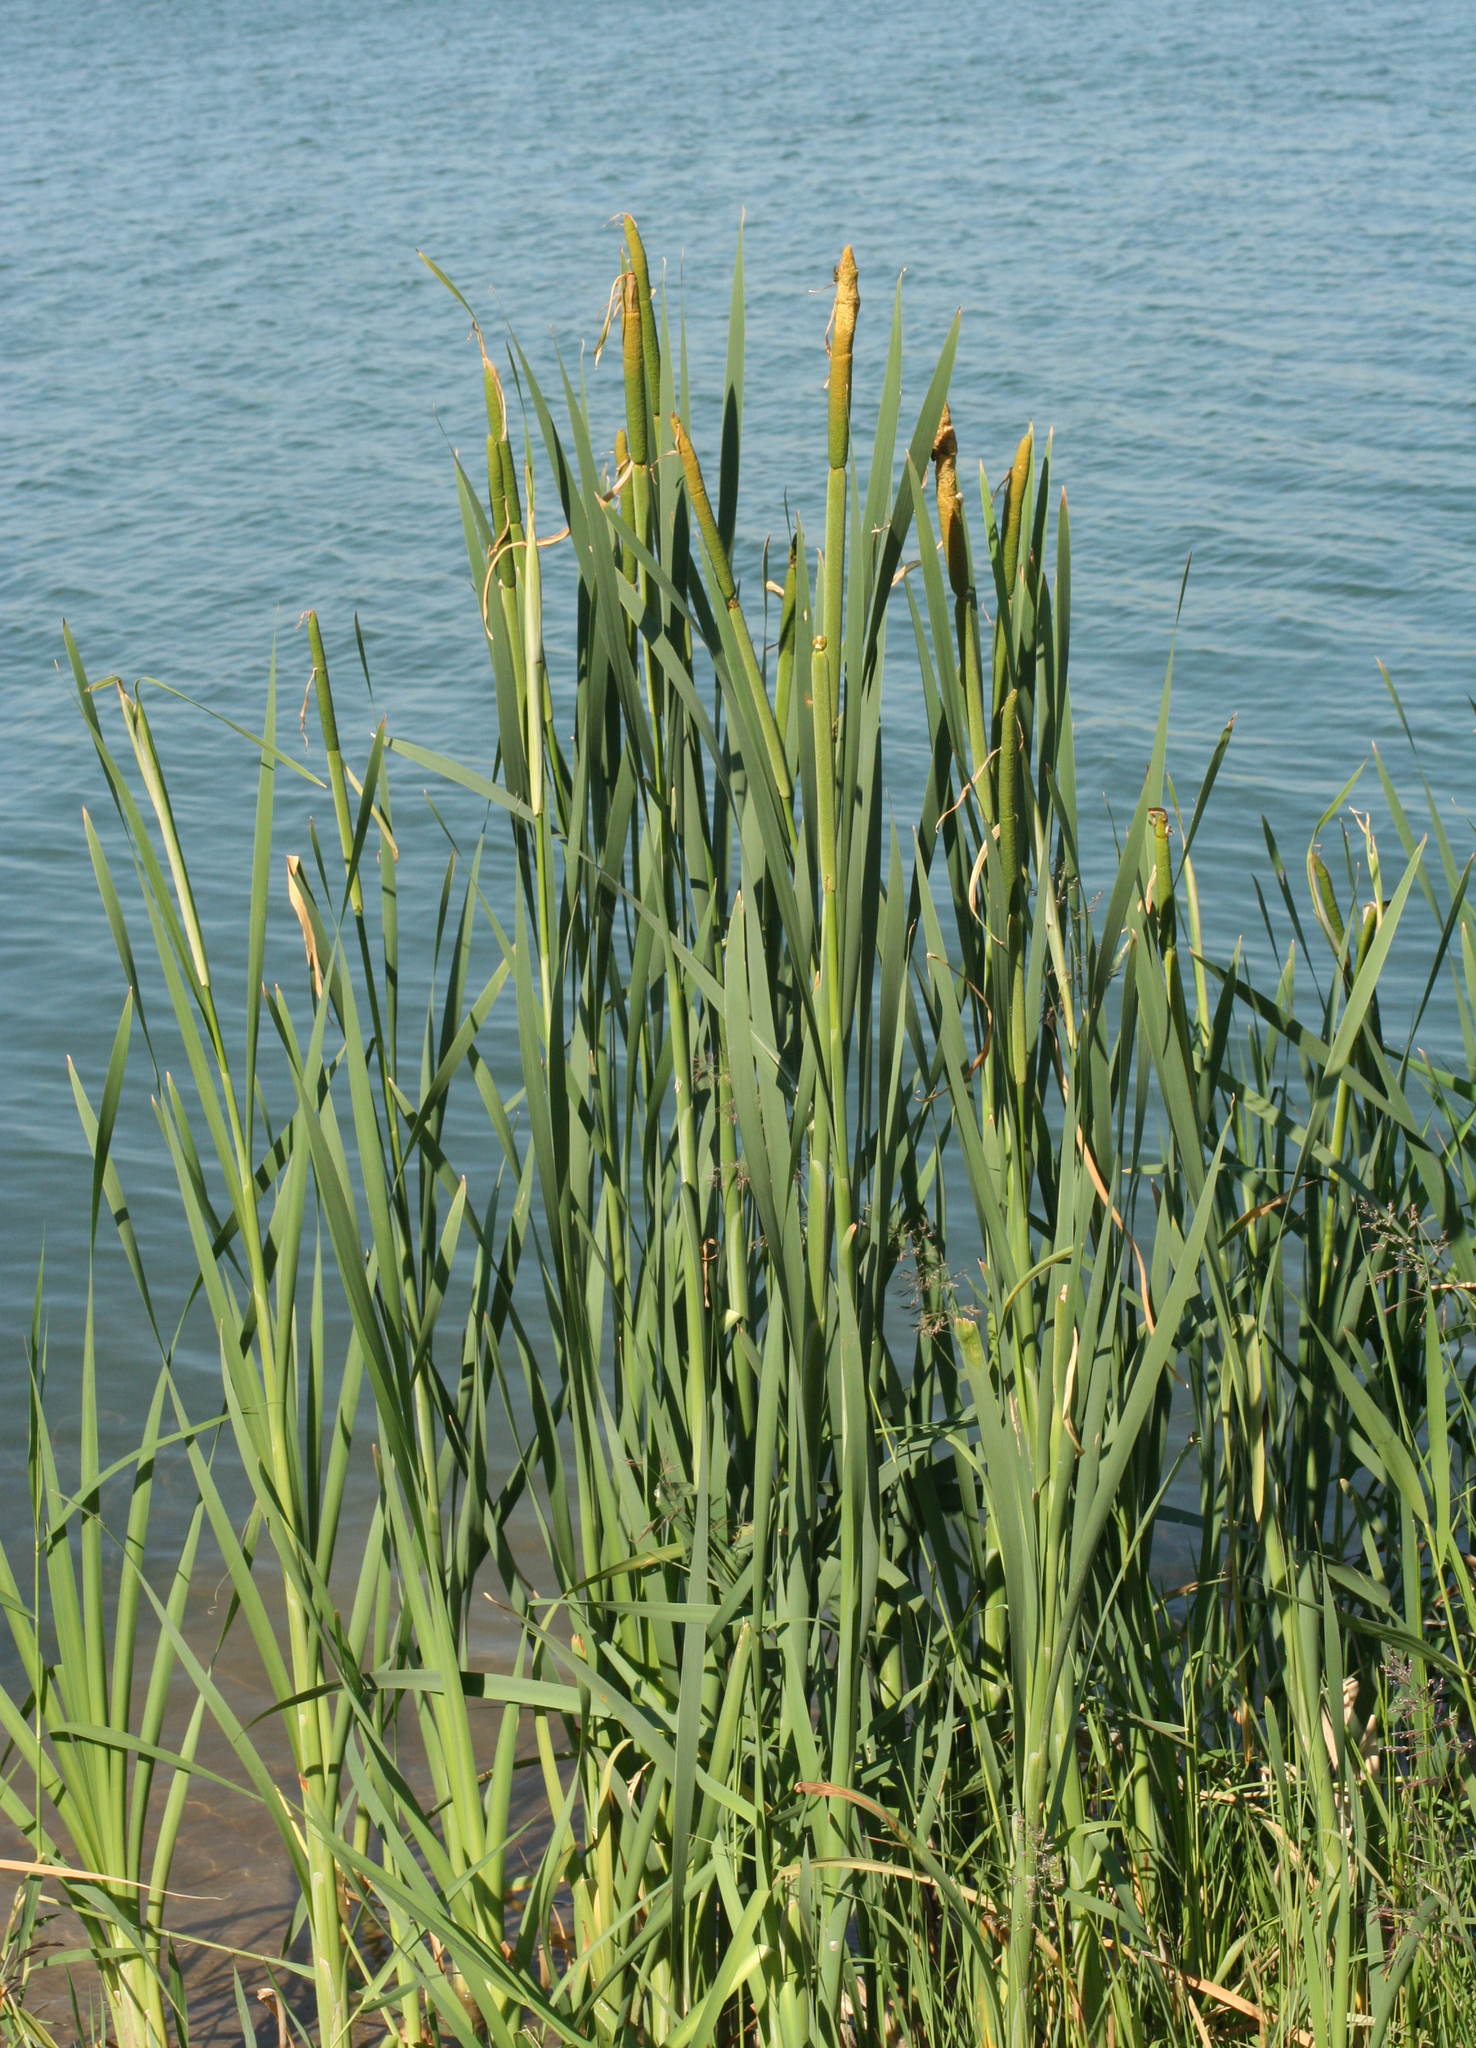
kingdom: Plantae
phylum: Tracheophyta
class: Liliopsida
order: Poales
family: Typhaceae
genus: Typha
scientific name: Typha latifolia
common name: Broadleaf cattail
